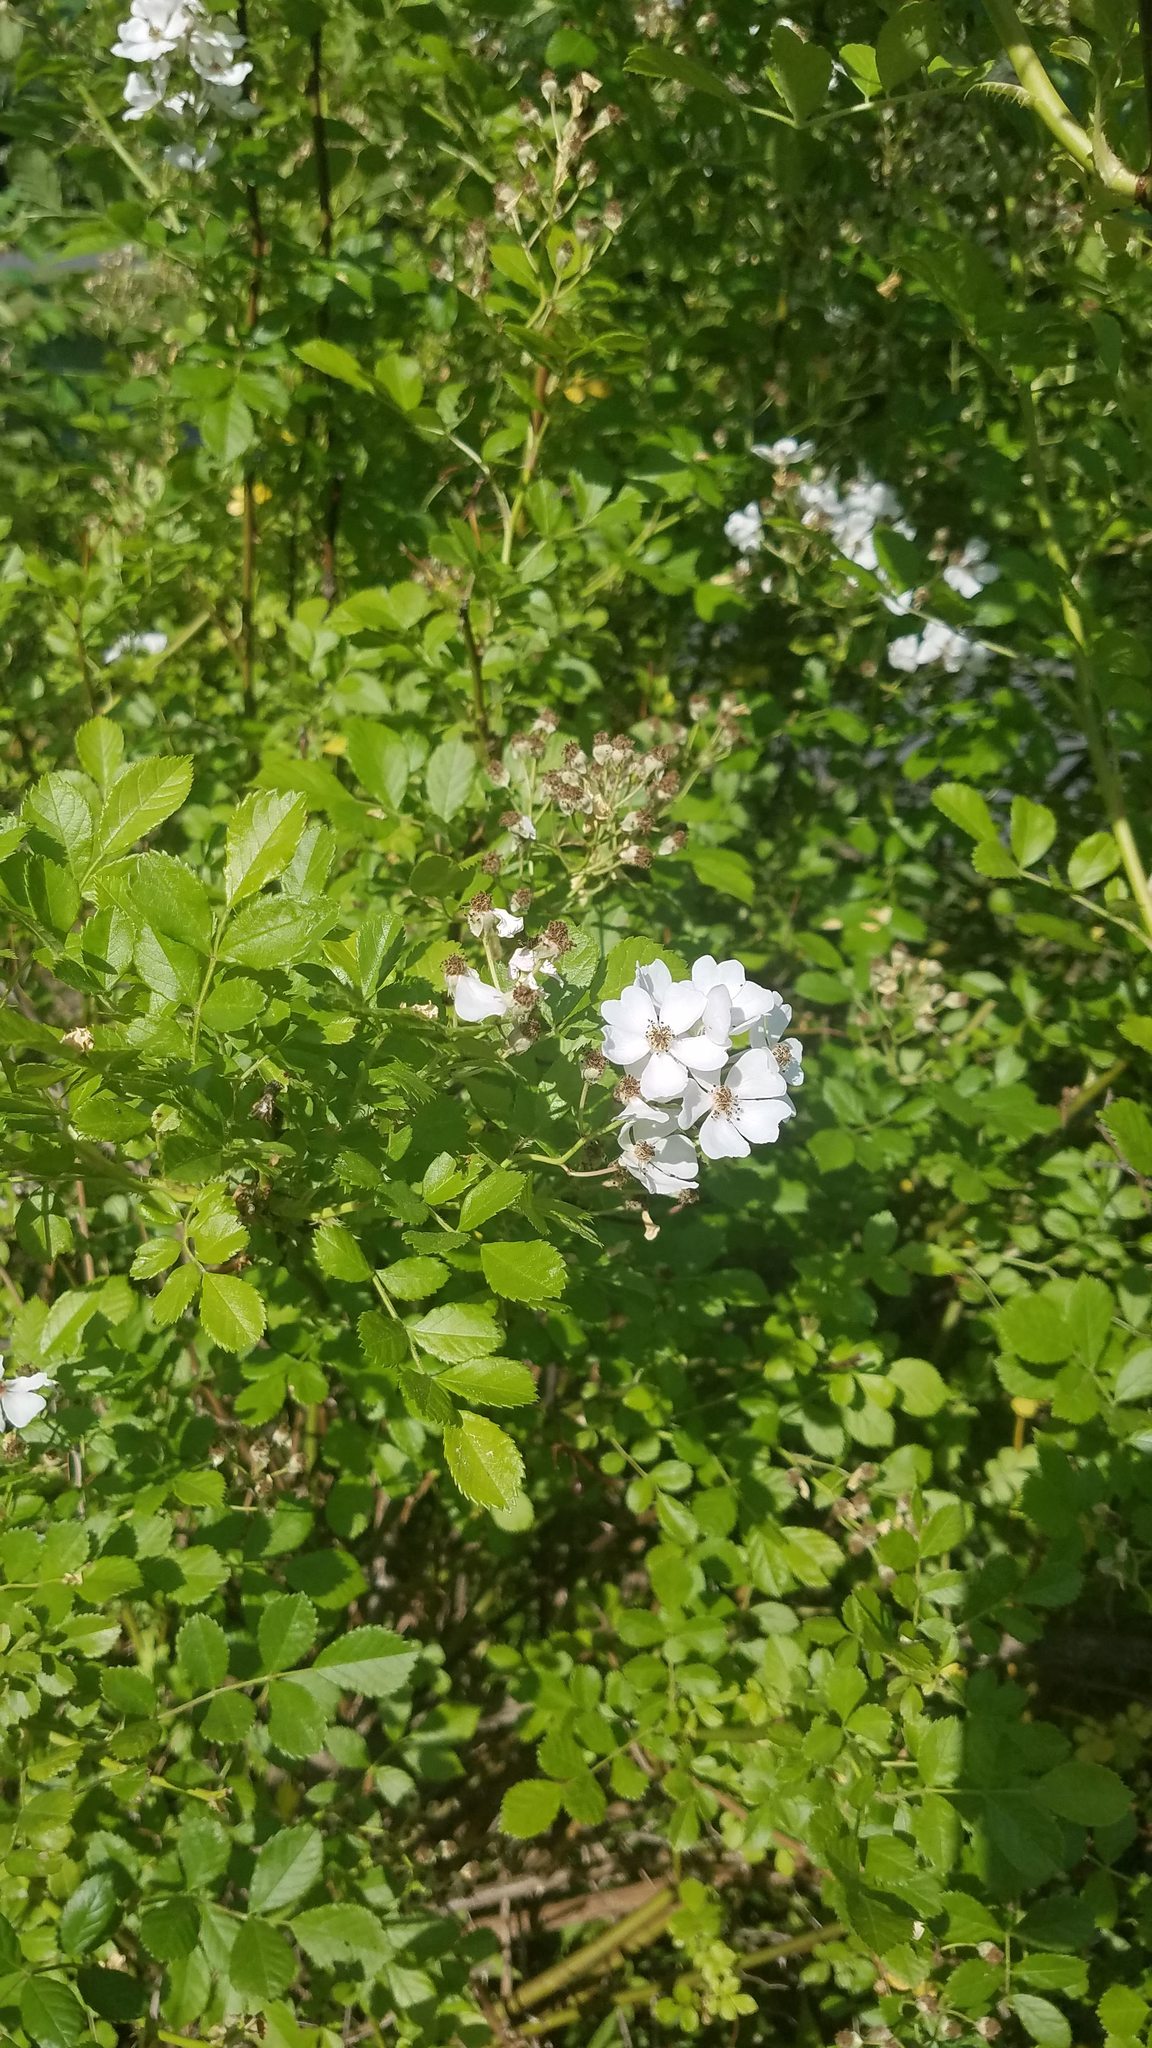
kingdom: Plantae
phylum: Tracheophyta
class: Magnoliopsida
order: Rosales
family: Rosaceae
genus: Rosa
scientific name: Rosa multiflora
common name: Multiflora rose
